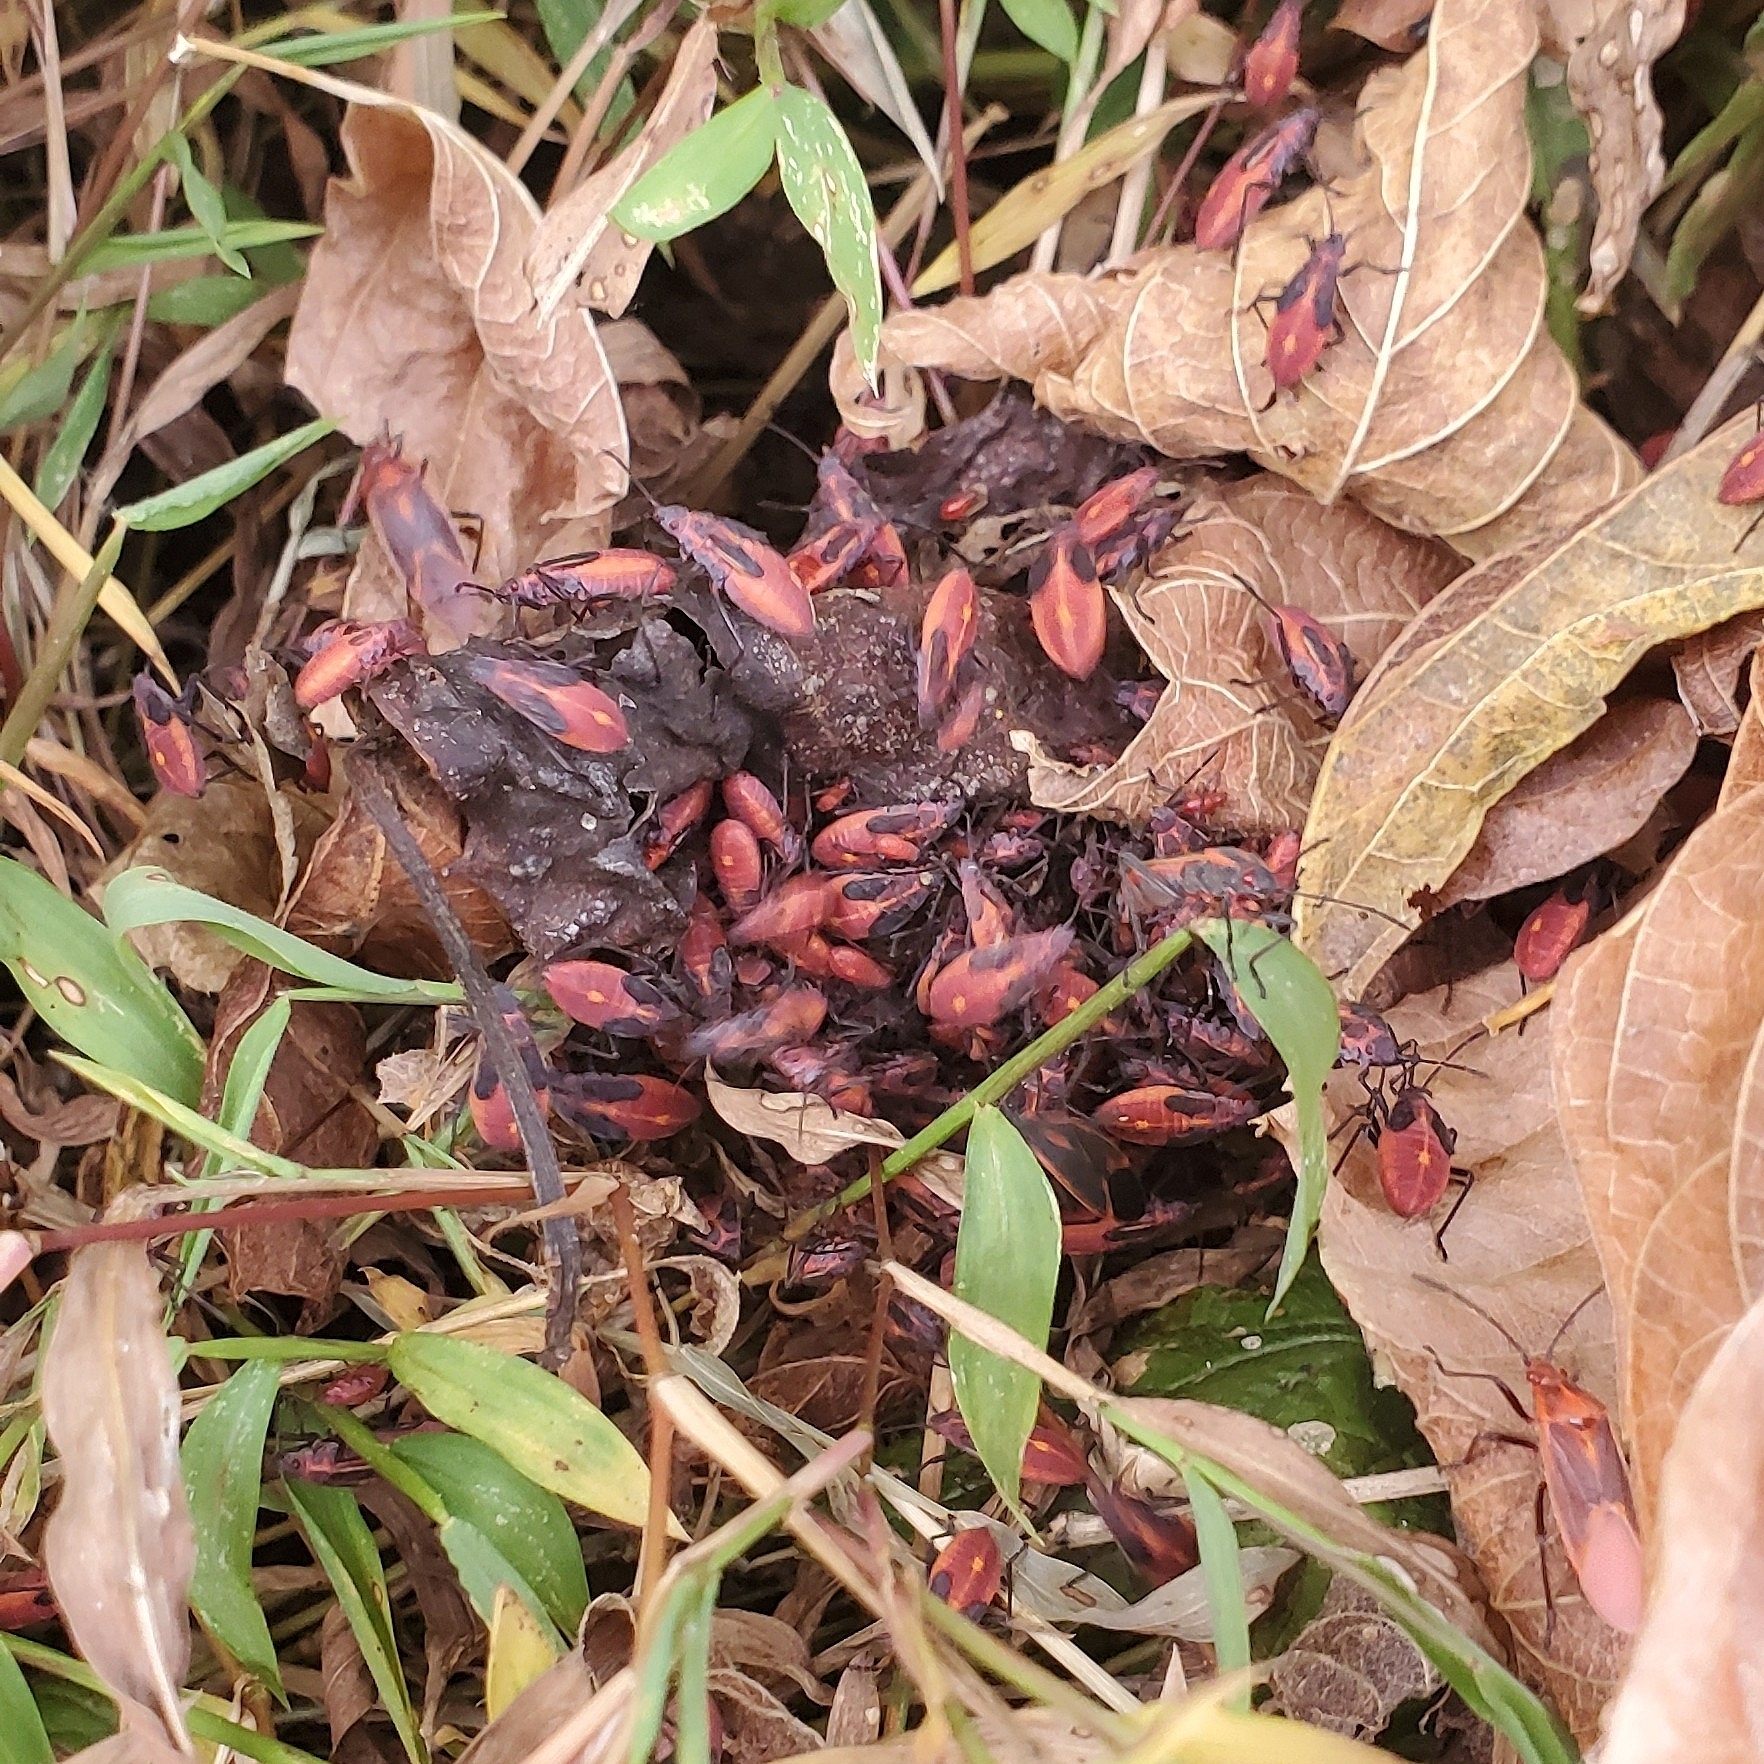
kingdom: Animalia
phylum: Arthropoda
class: Insecta
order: Hemiptera
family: Rhopalidae
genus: Boisea
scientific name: Boisea trivittata
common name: Boxelder bug
